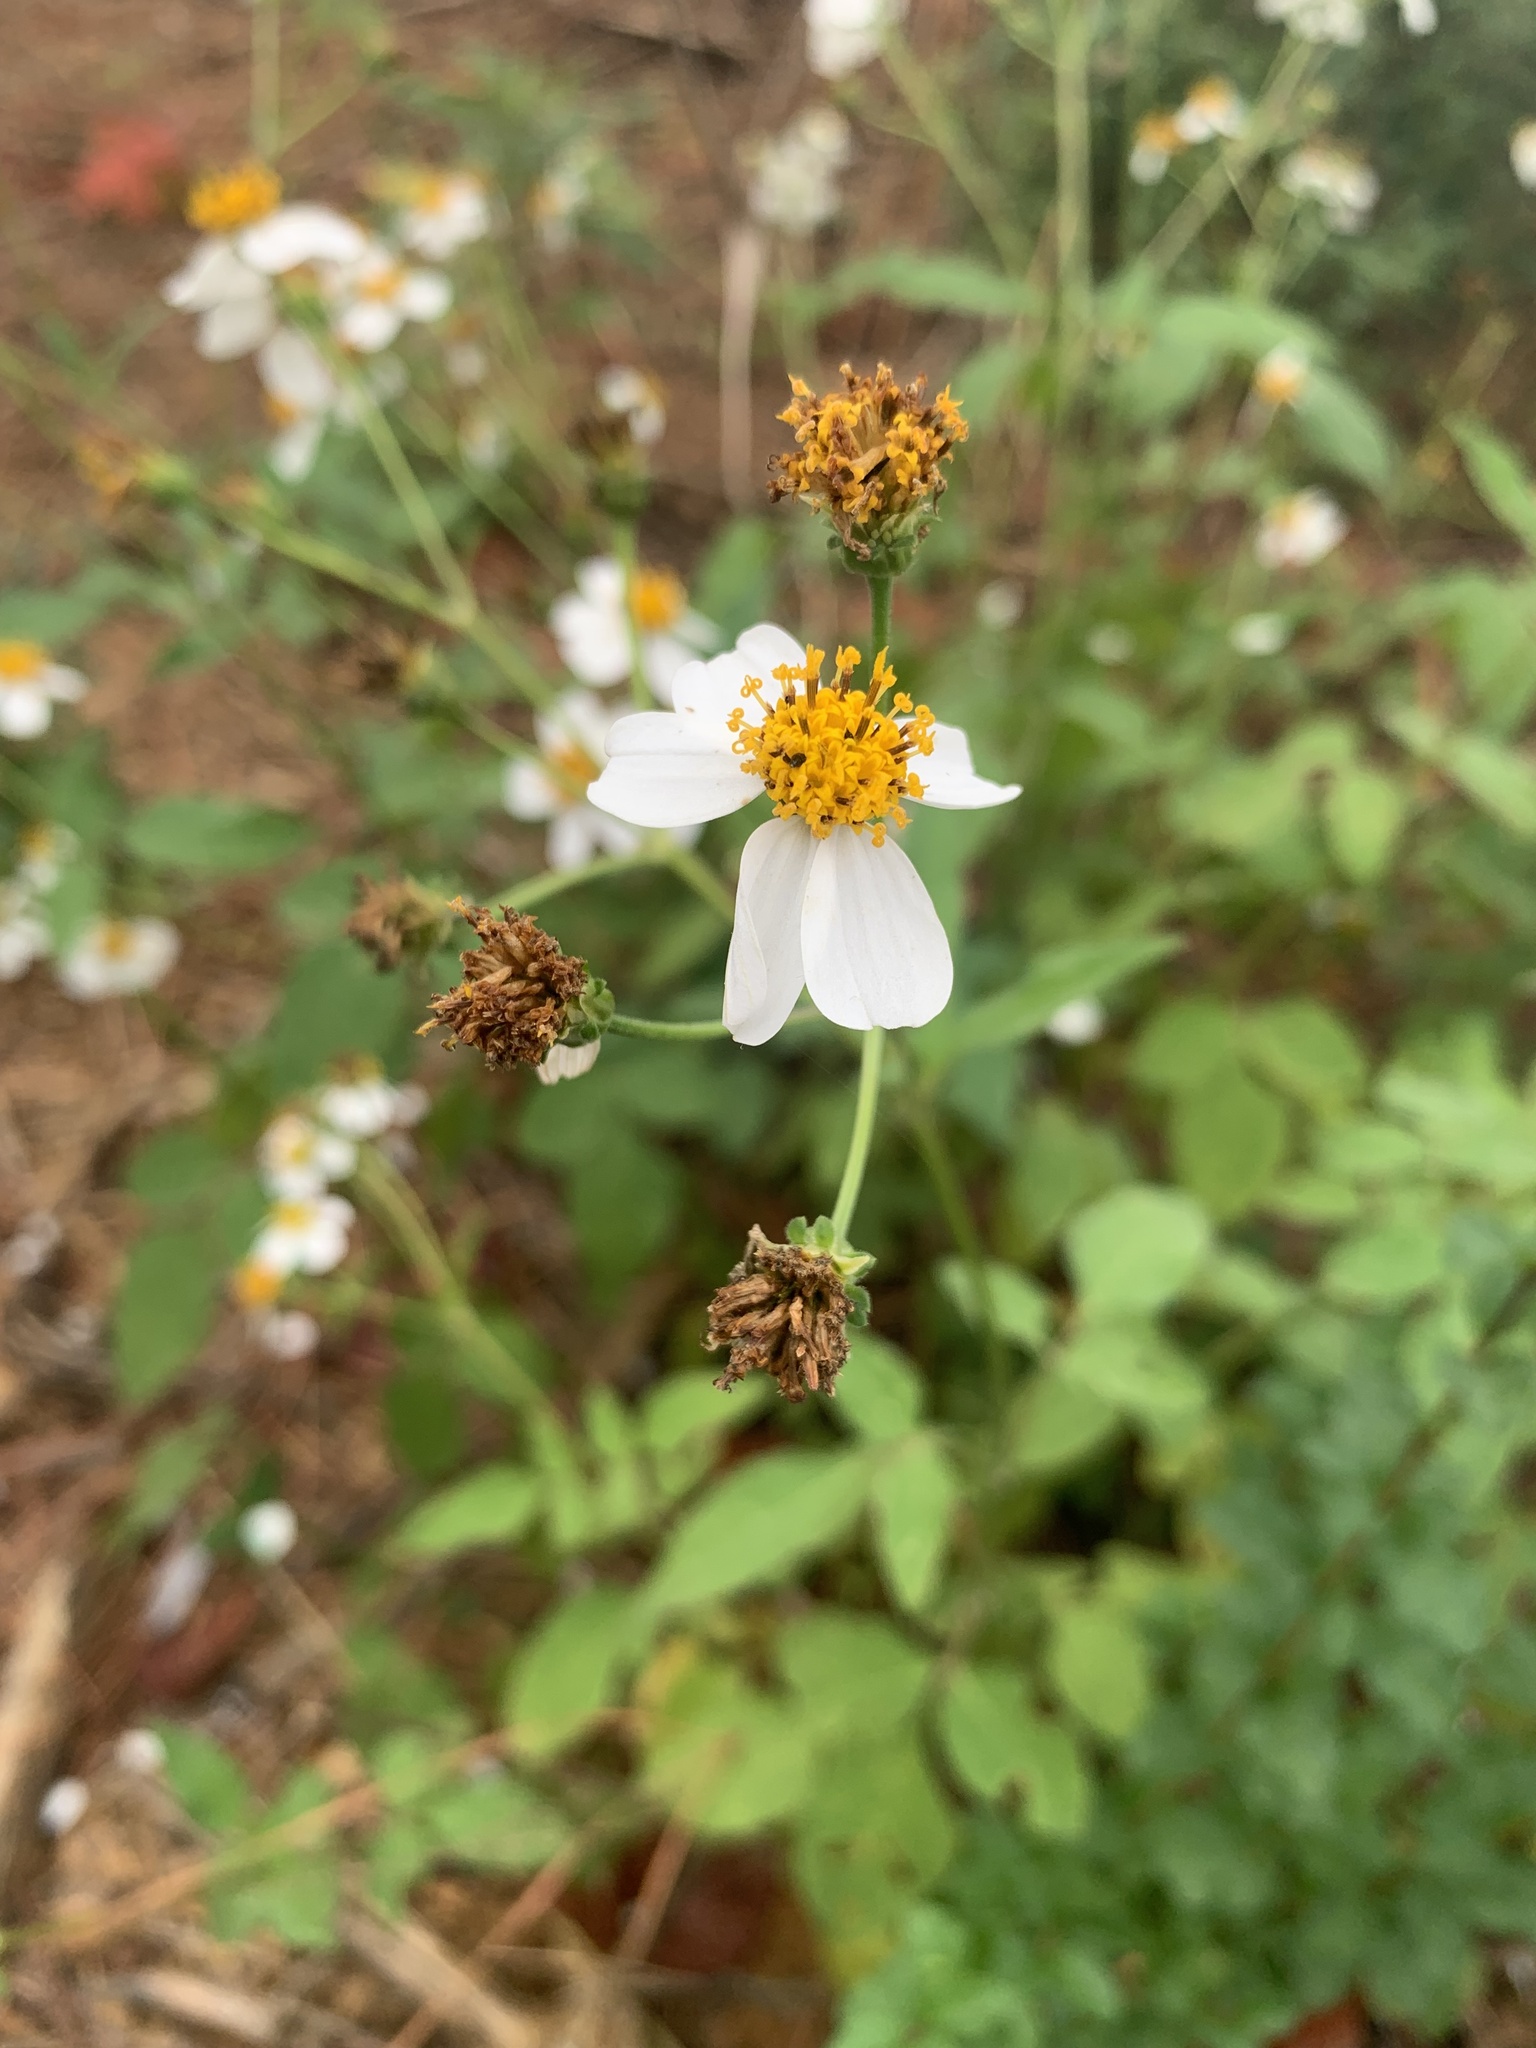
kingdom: Plantae
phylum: Tracheophyta
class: Magnoliopsida
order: Asterales
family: Asteraceae
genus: Bidens
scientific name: Bidens alba
